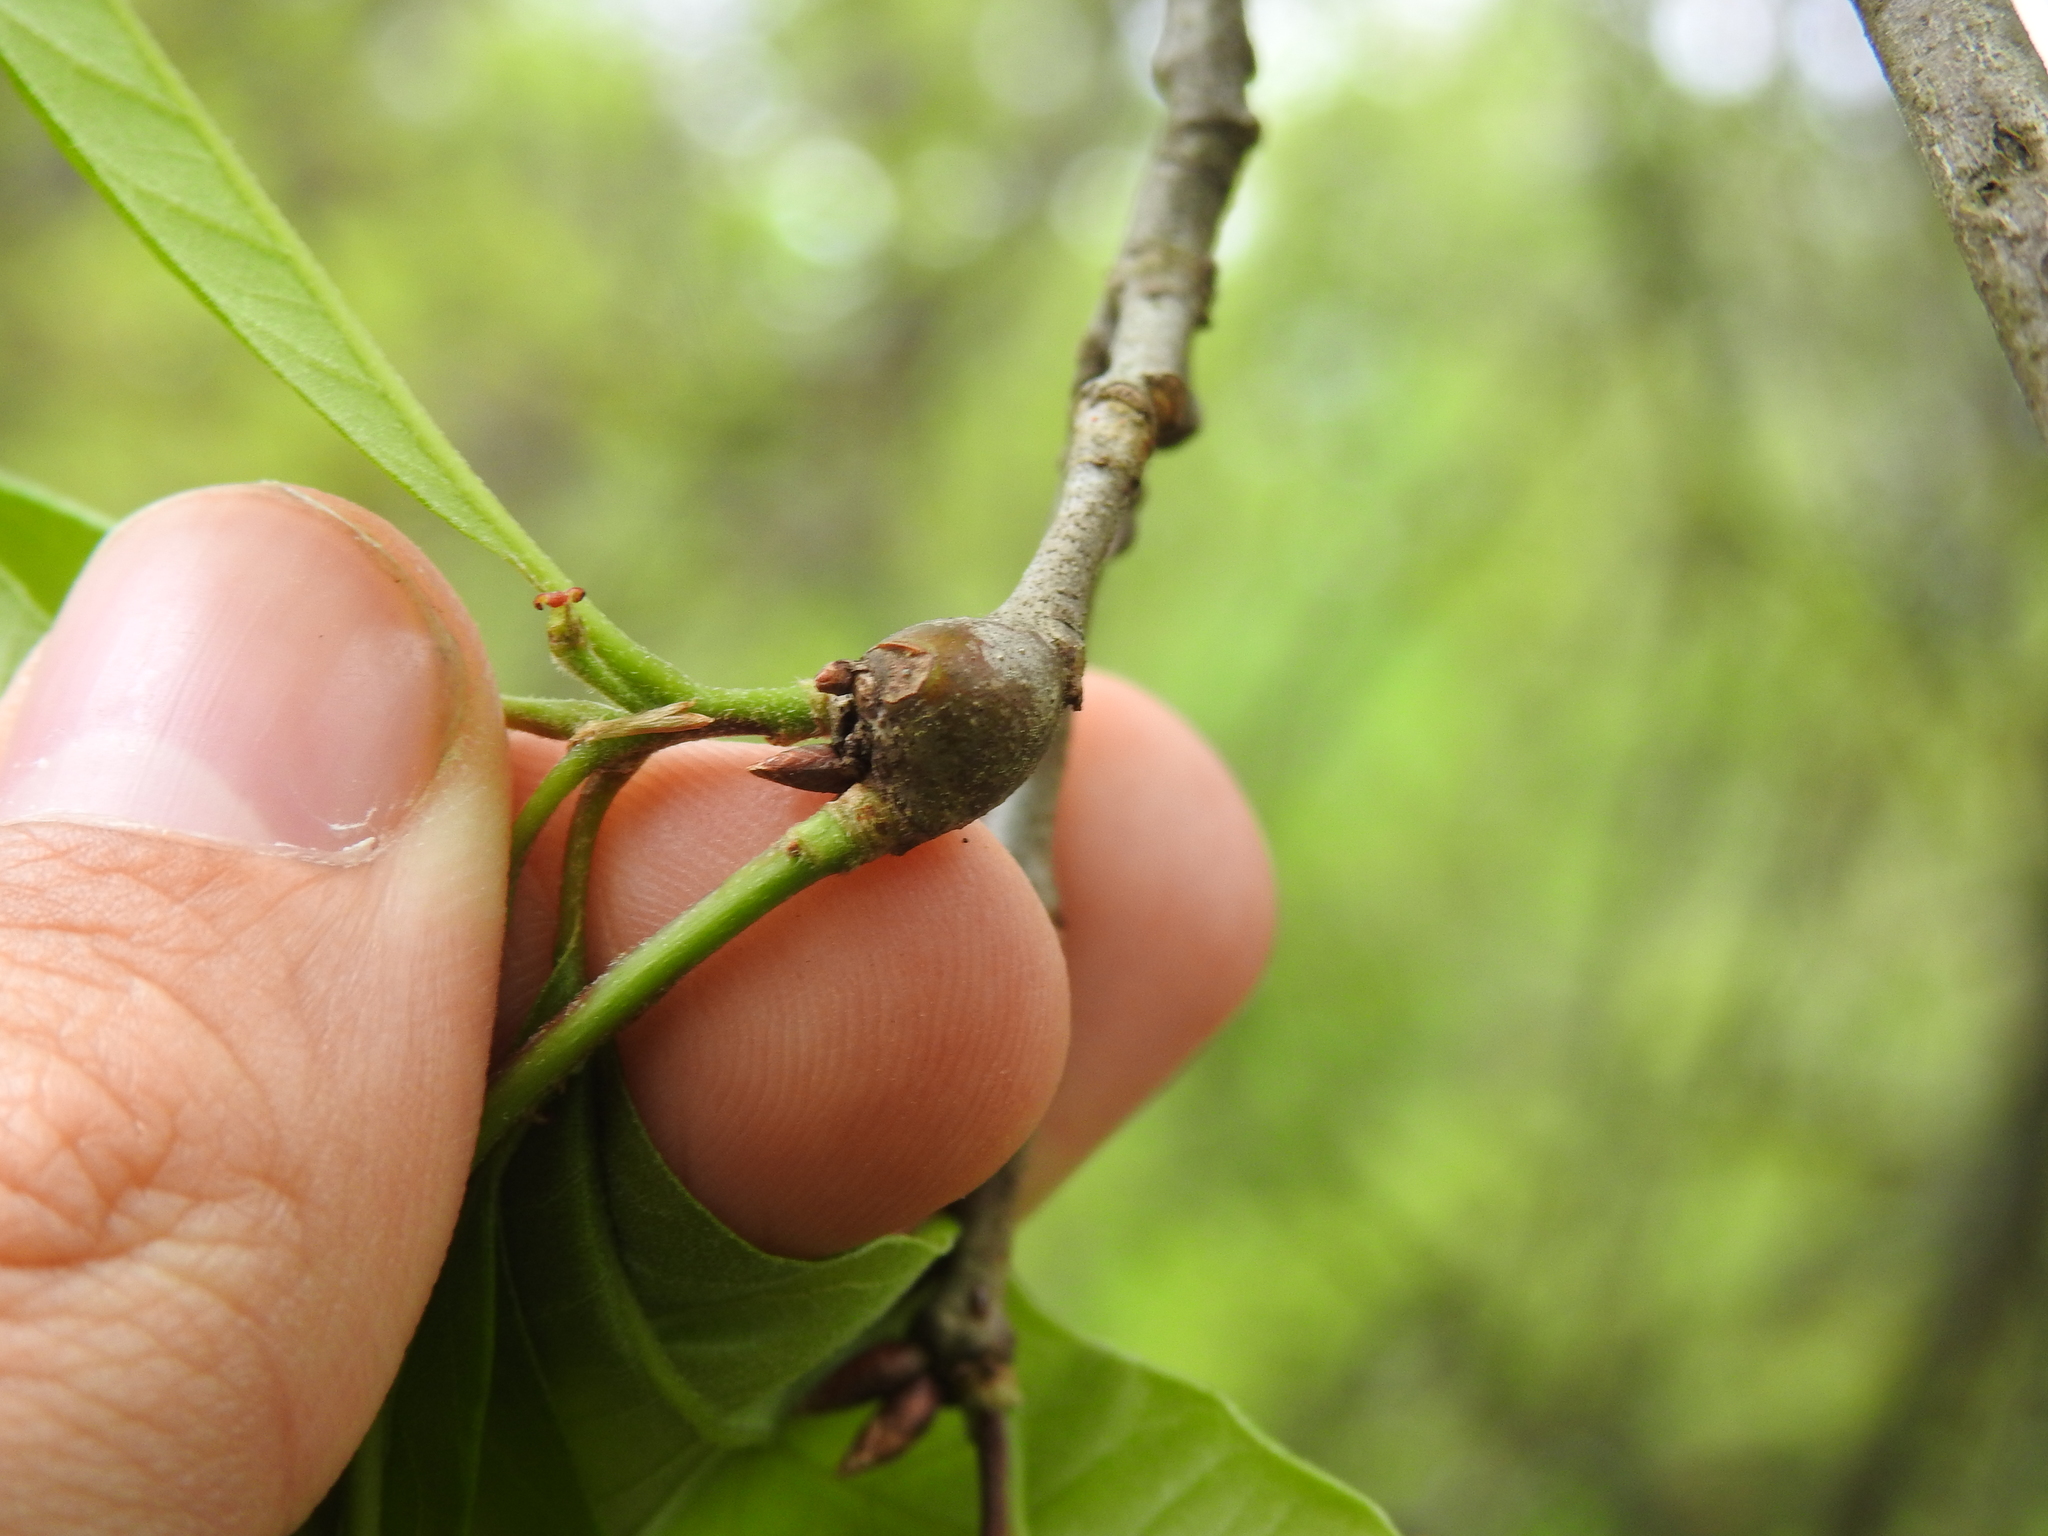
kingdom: Animalia
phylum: Arthropoda
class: Insecta
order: Hymenoptera
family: Cynipidae
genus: Zapatella
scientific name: Zapatella quercusphellos
